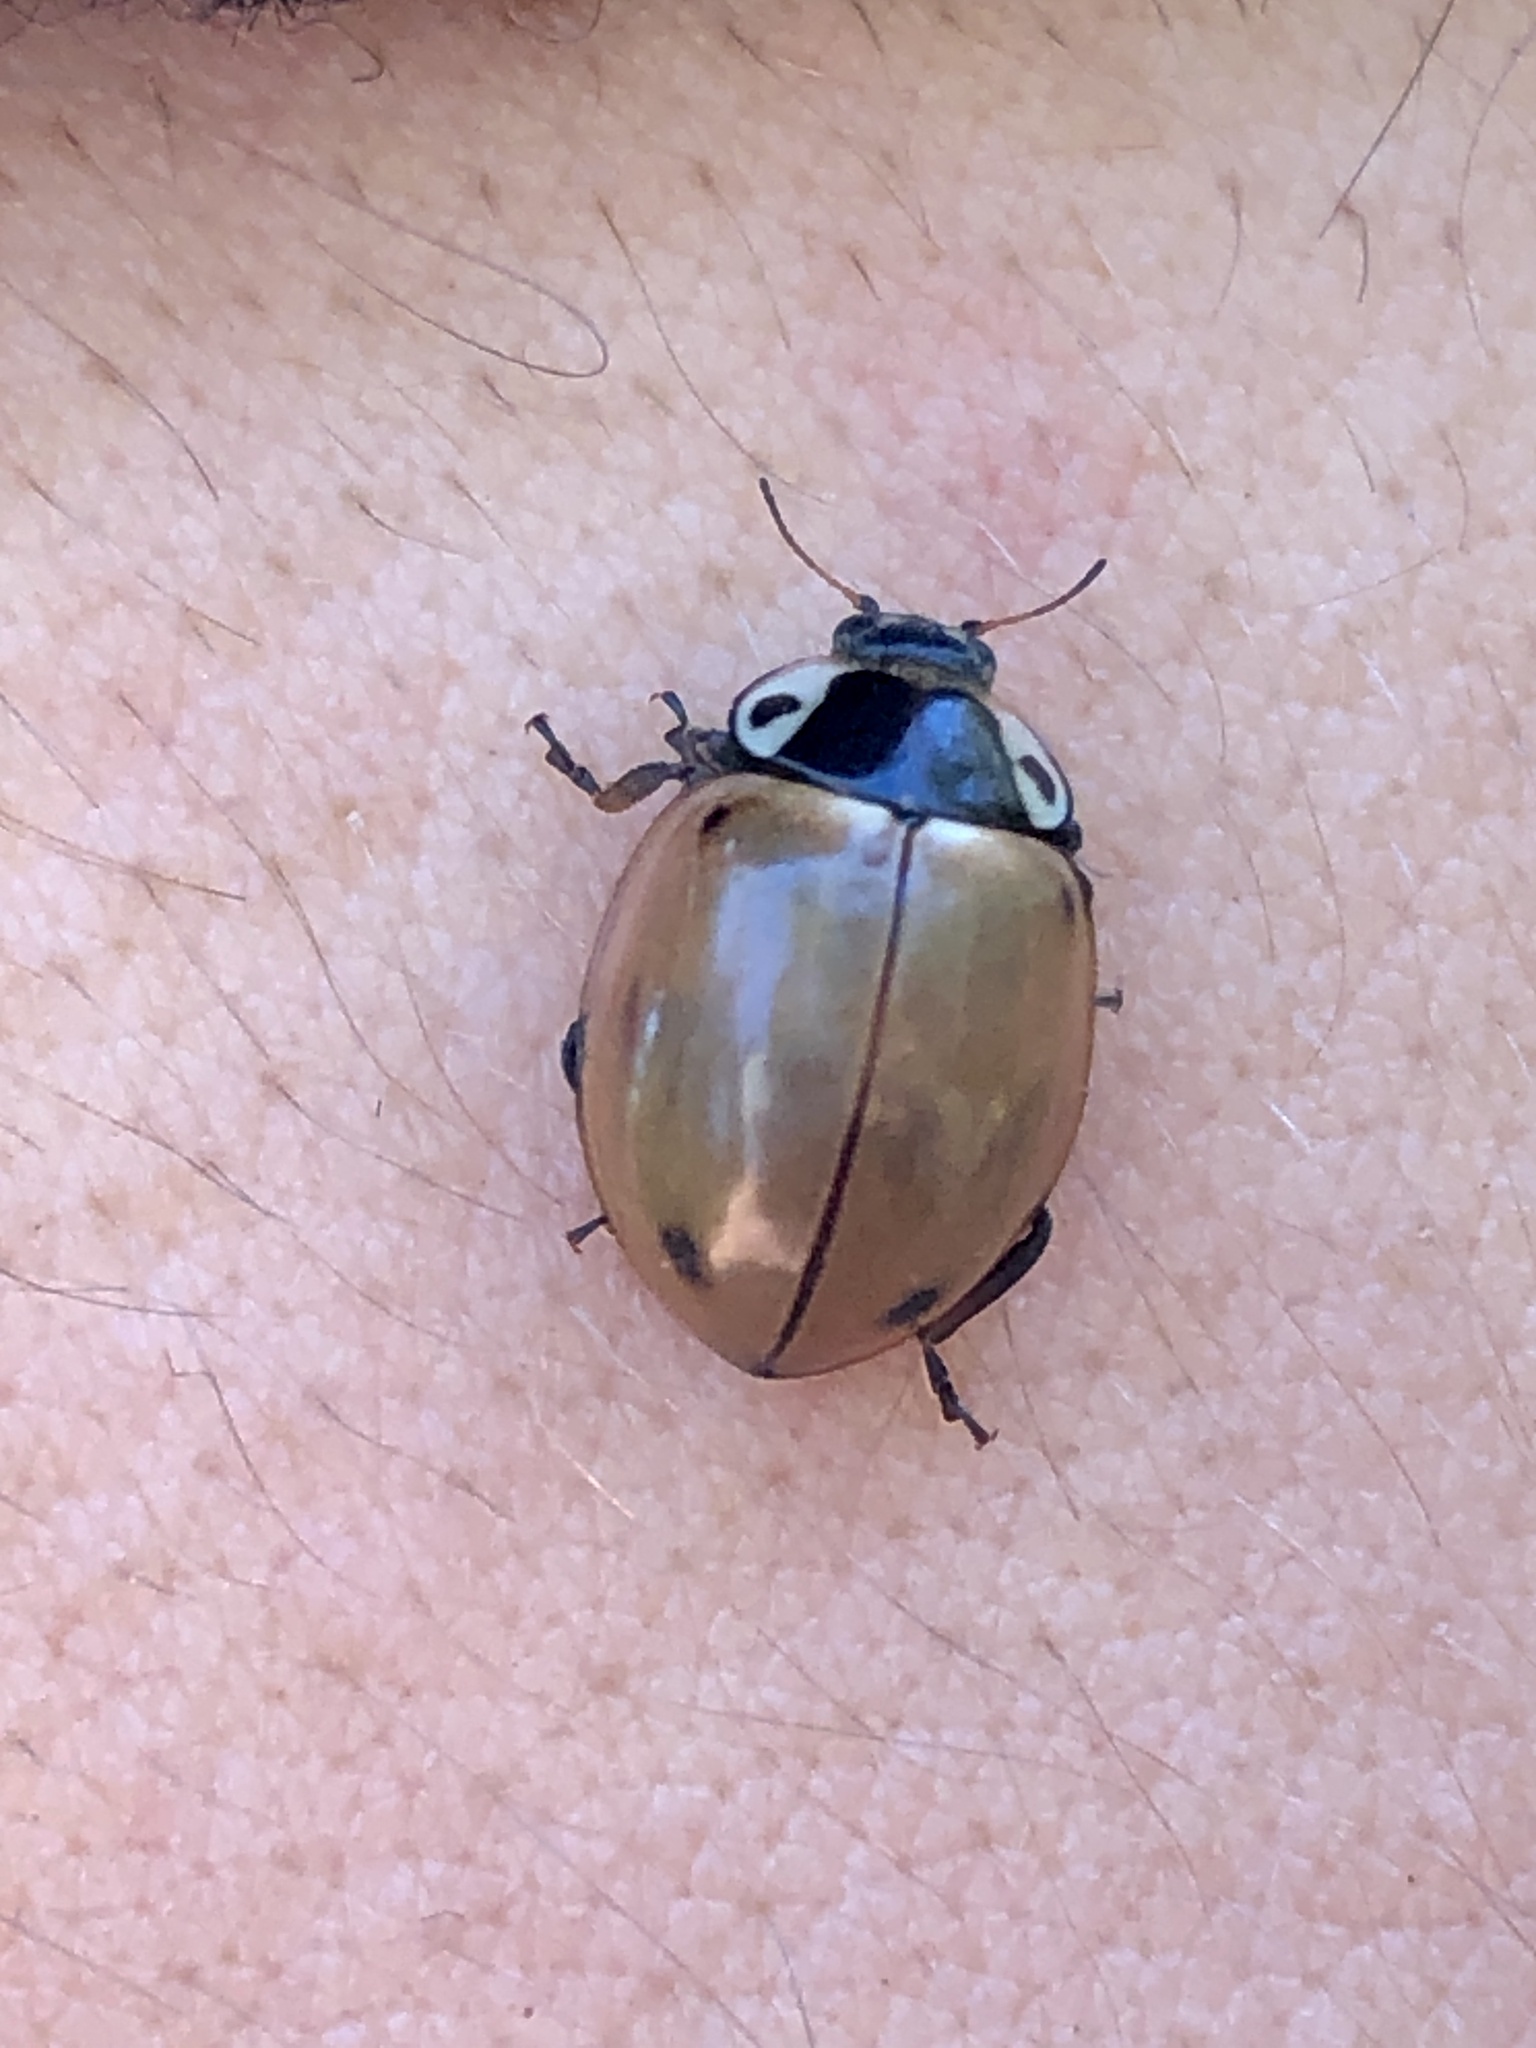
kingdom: Animalia
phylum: Arthropoda
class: Insecta
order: Coleoptera
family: Coccinellidae
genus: Myzia
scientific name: Myzia pullata
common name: Streaked lady beetle
